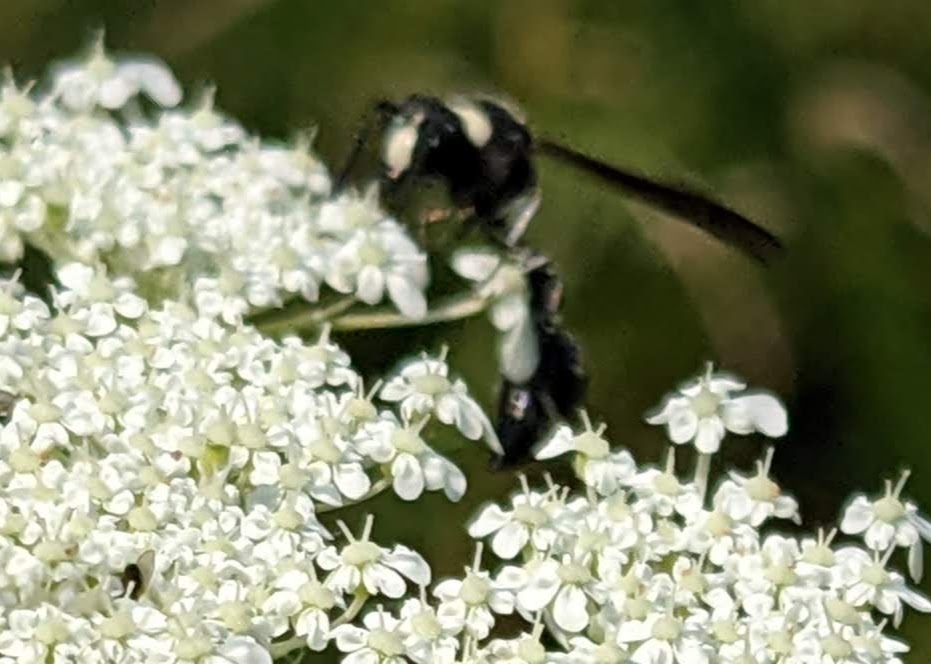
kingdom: Animalia
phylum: Arthropoda
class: Insecta
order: Hymenoptera
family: Vespidae
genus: Eumenes
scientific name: Eumenes fraternus
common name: Fraternal potter wasp
